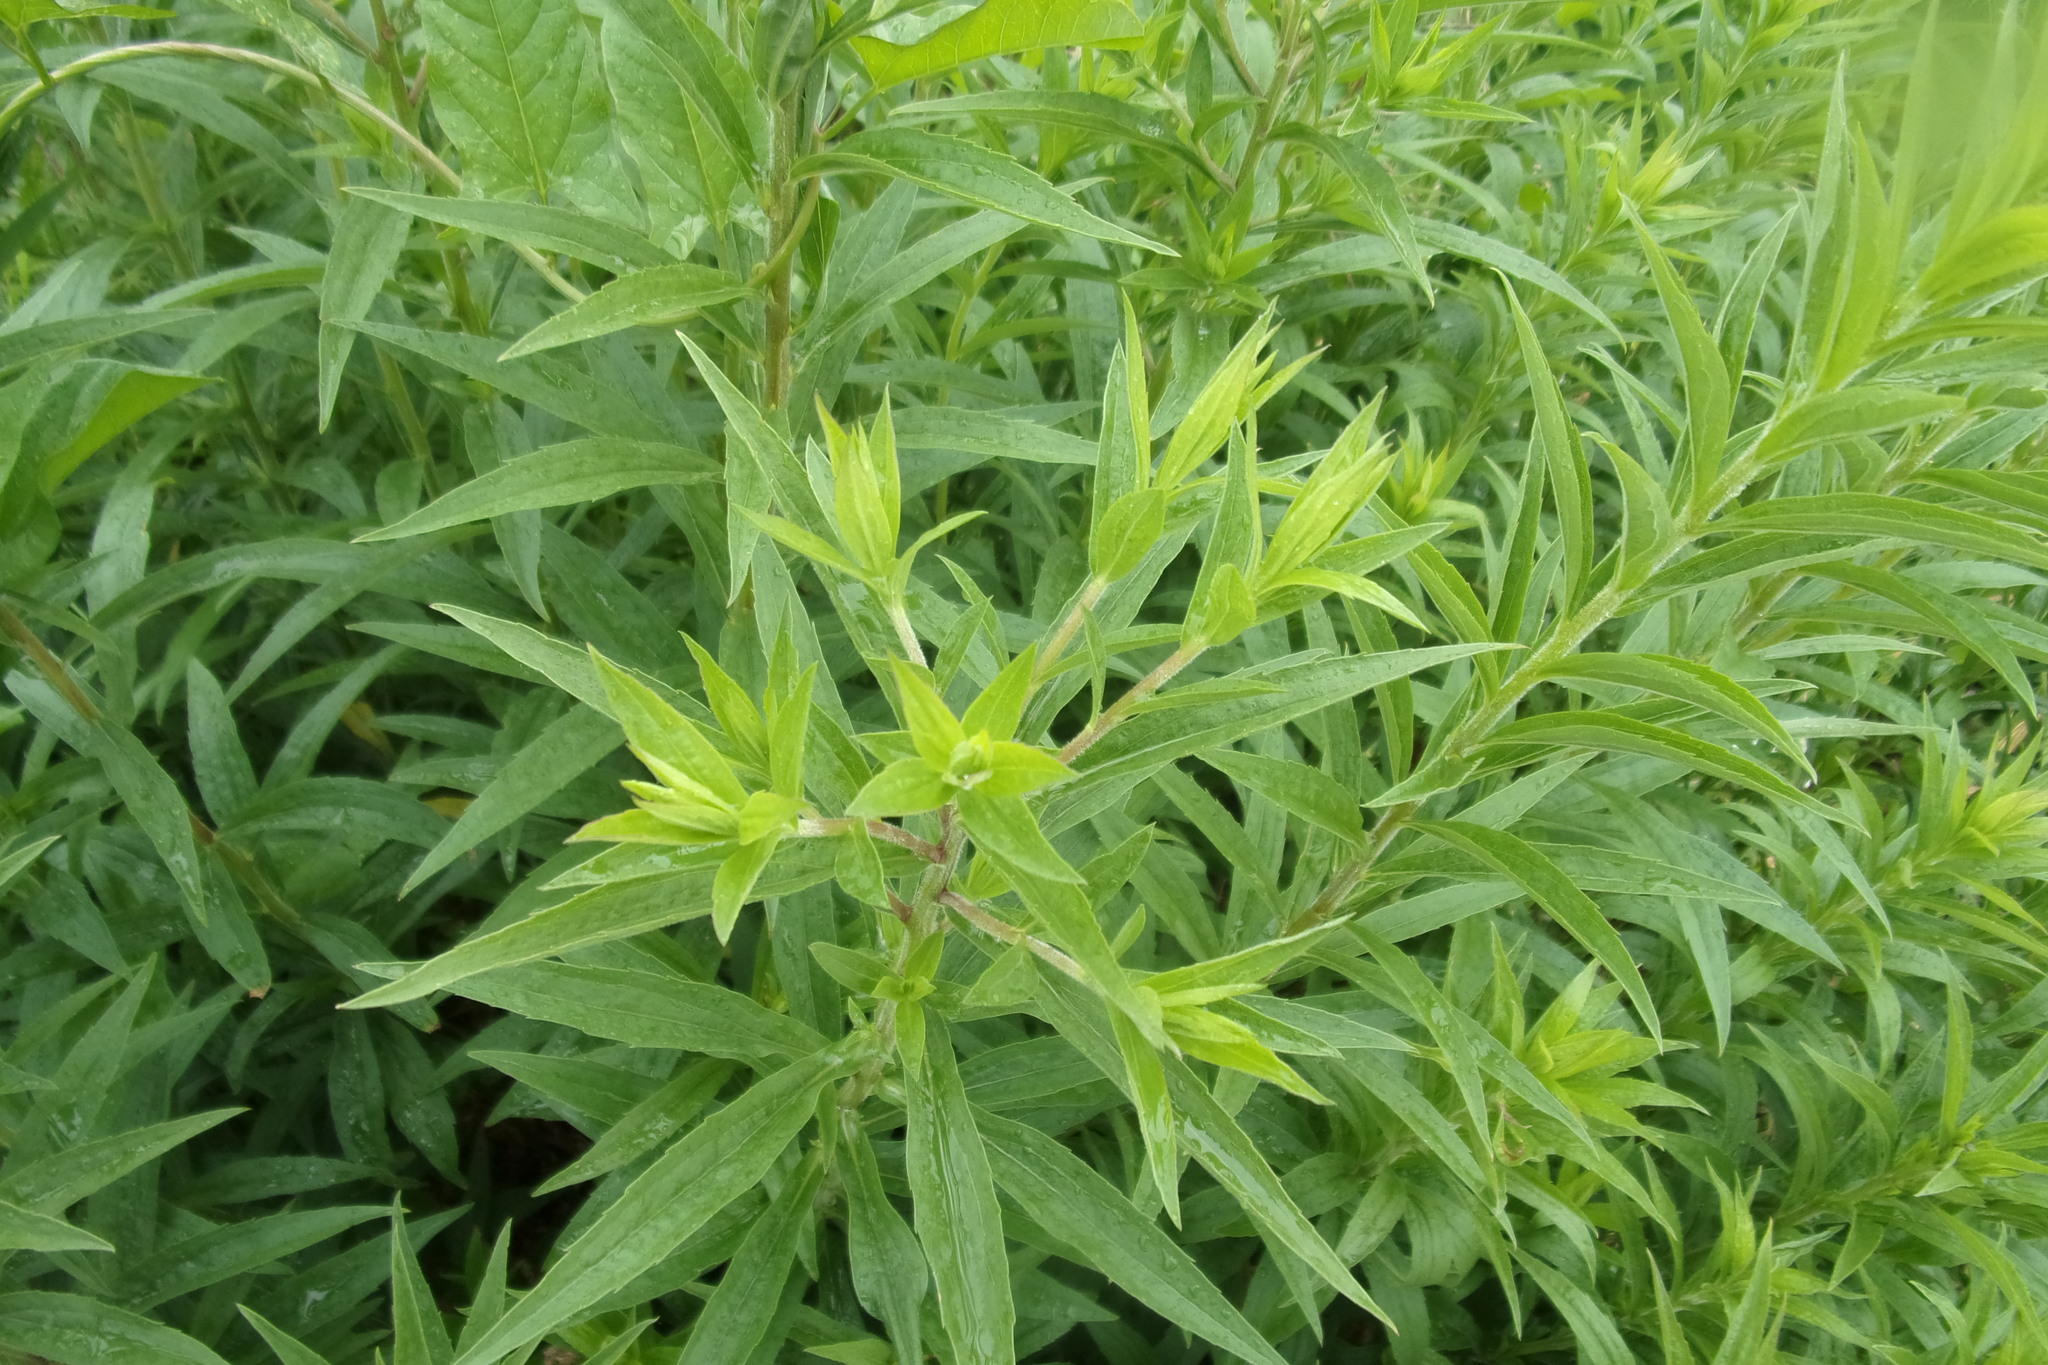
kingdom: Plantae
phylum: Tracheophyta
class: Magnoliopsida
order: Asterales
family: Asteraceae
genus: Solidago
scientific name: Solidago canadensis
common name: Canada goldenrod
